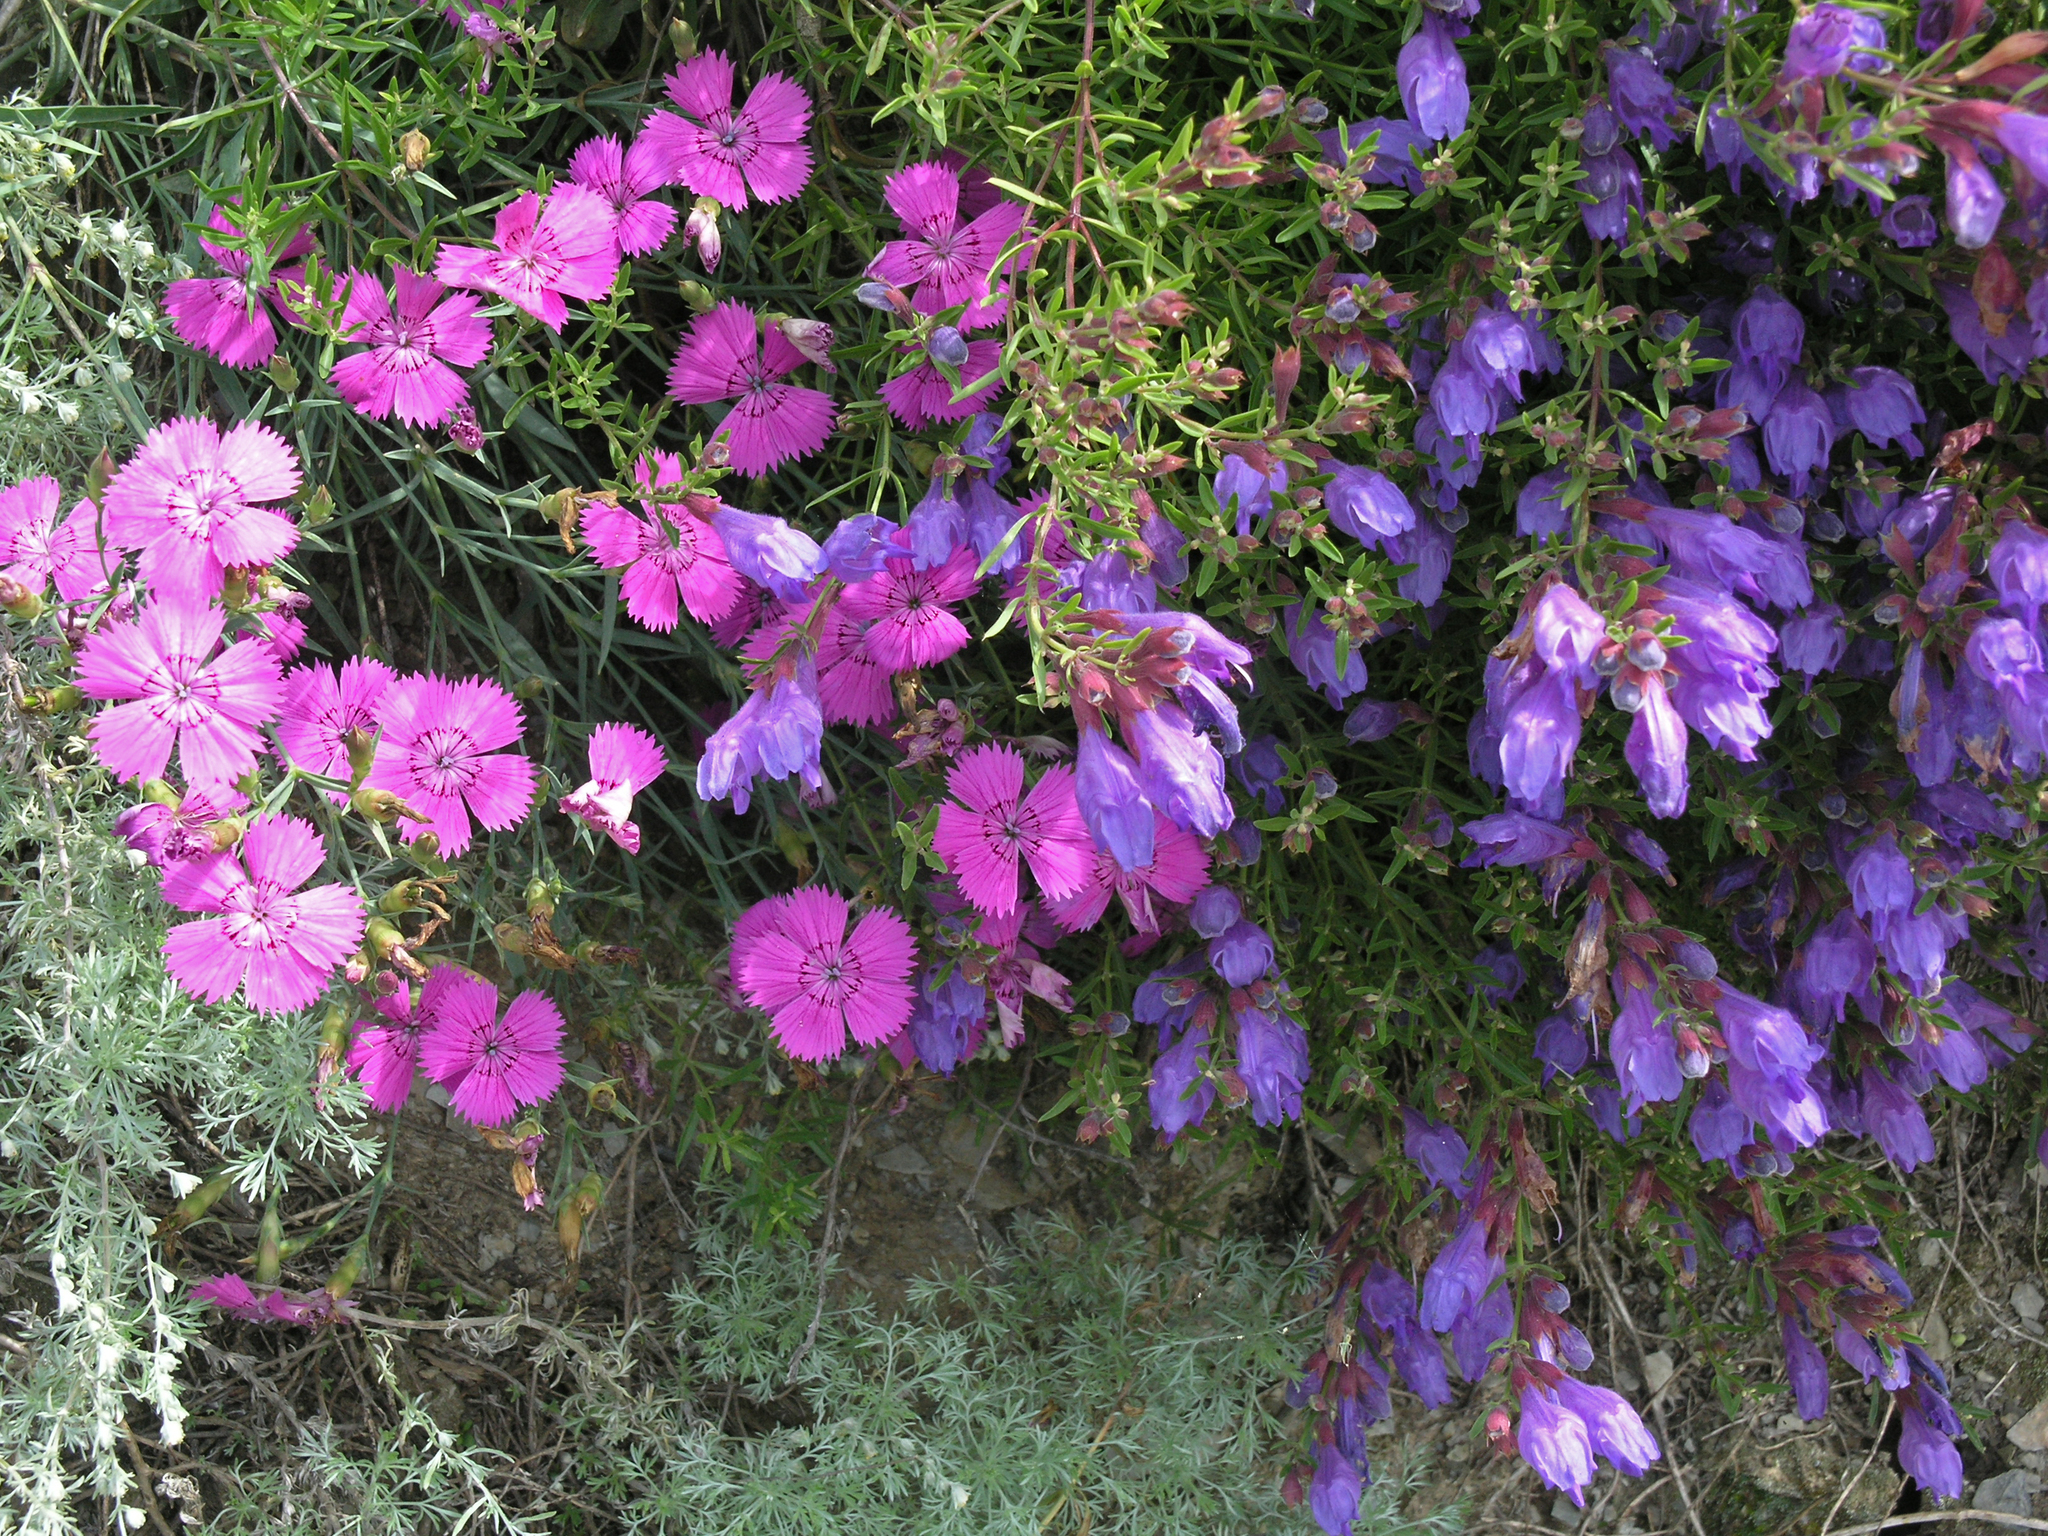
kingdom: Plantae
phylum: Tracheophyta
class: Magnoliopsida
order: Lamiales
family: Lamiaceae
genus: Dracocephalum
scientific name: Dracocephalum peregrinum
